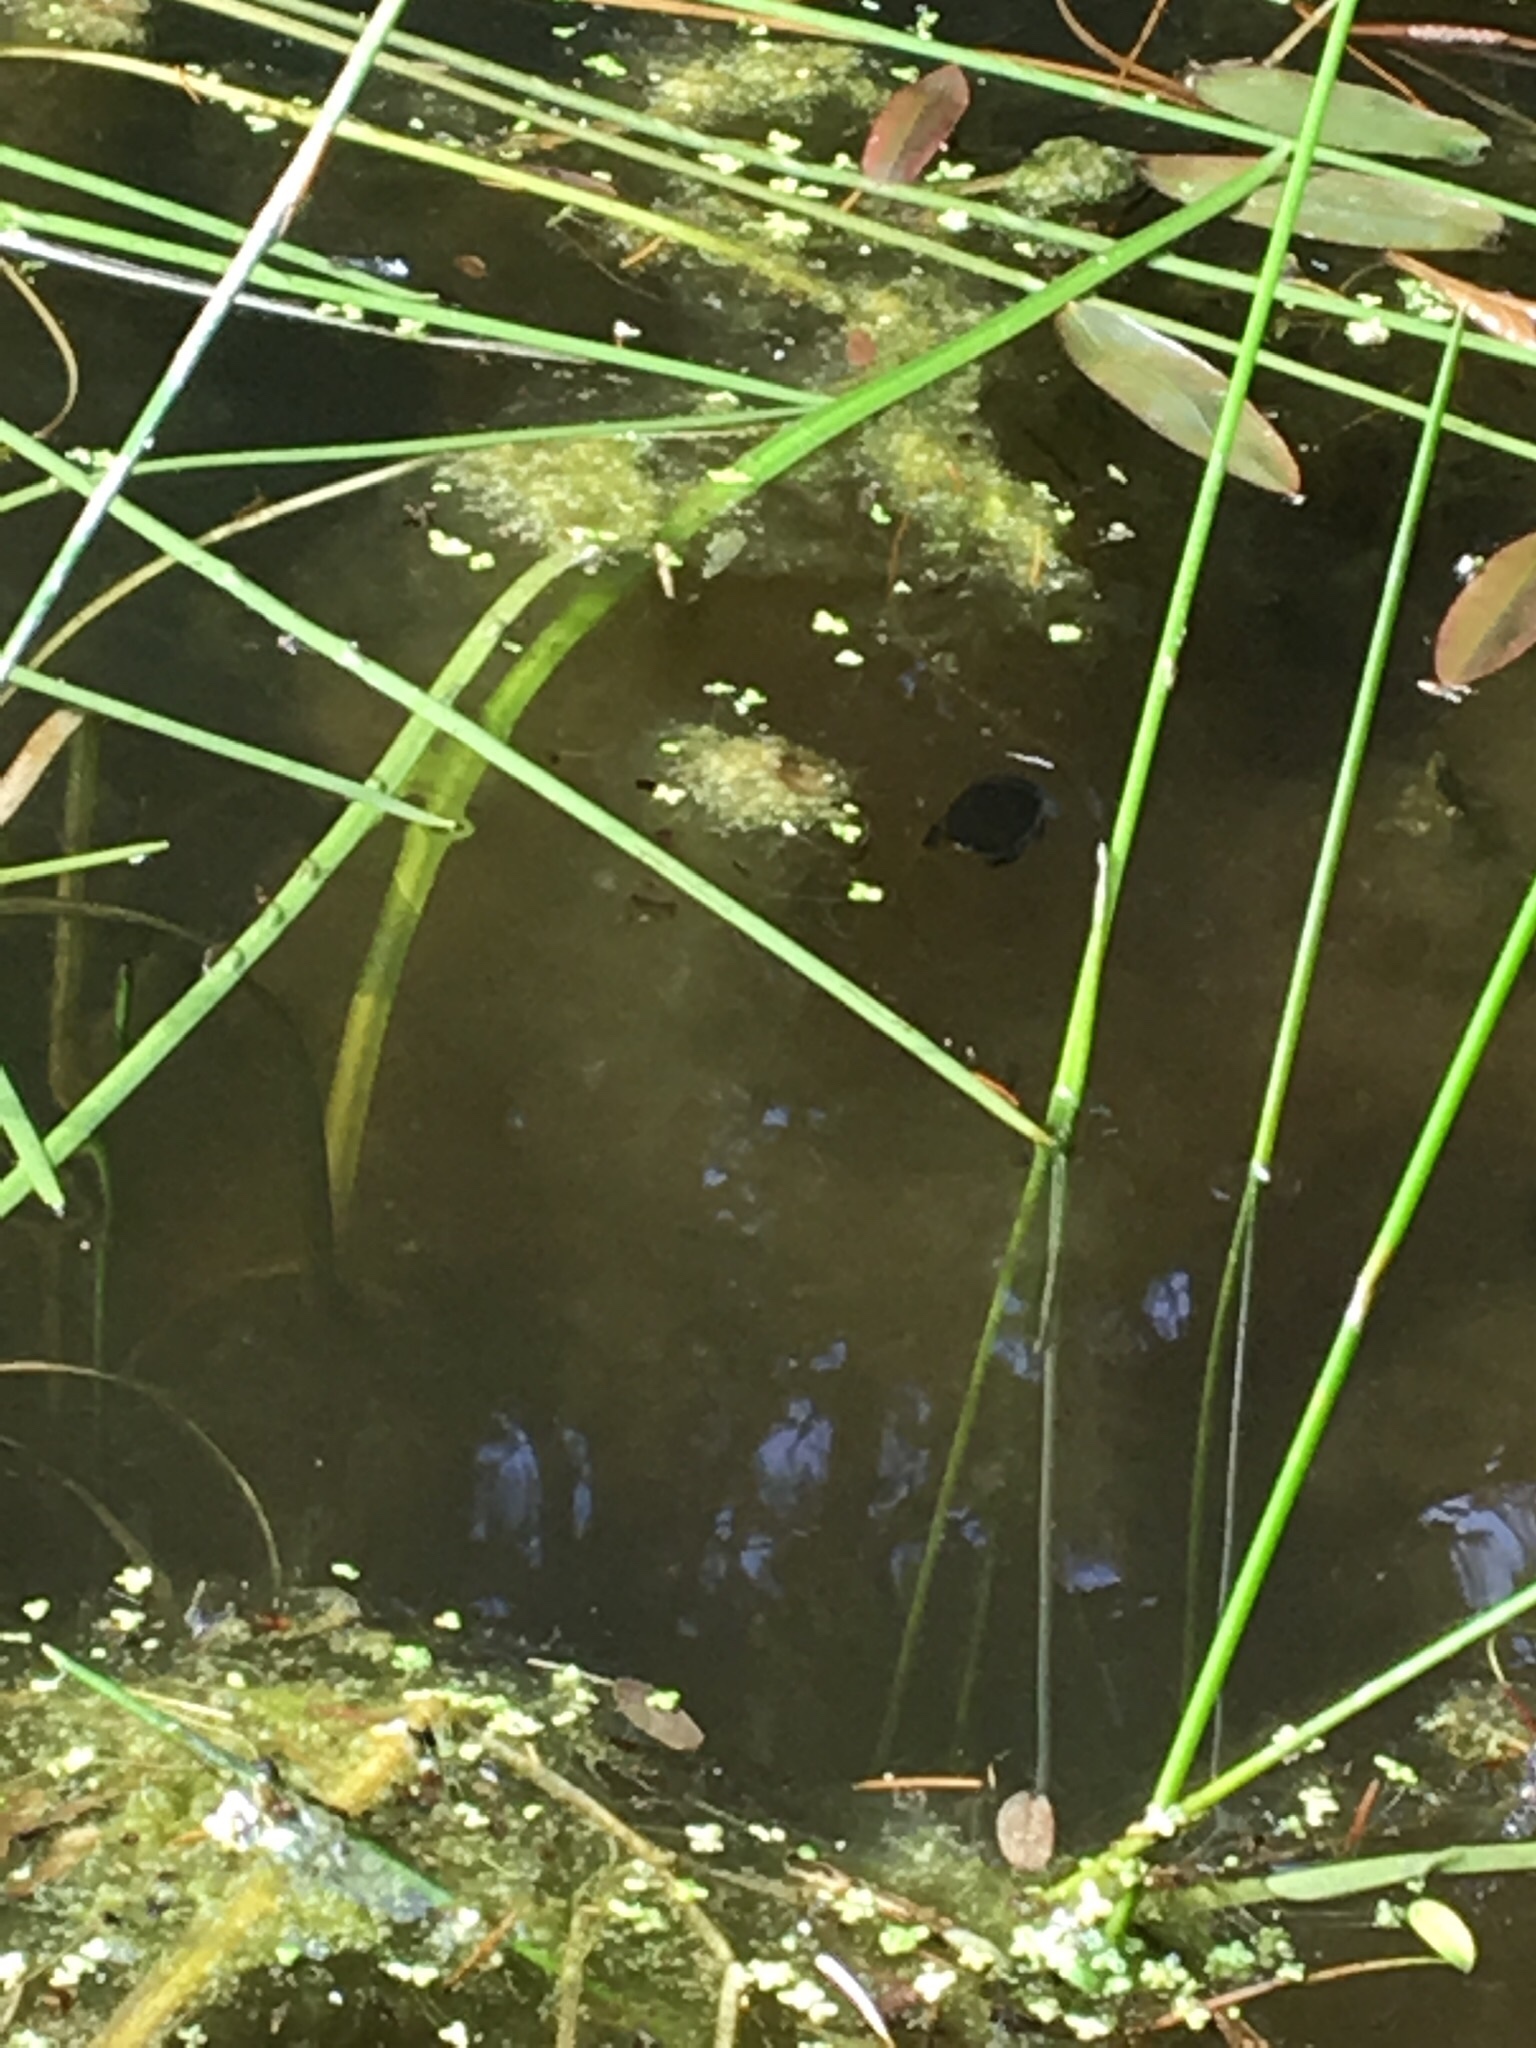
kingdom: Animalia
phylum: Arthropoda
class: Insecta
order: Coleoptera
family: Dytiscidae
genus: Dytiscus
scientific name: Dytiscus
